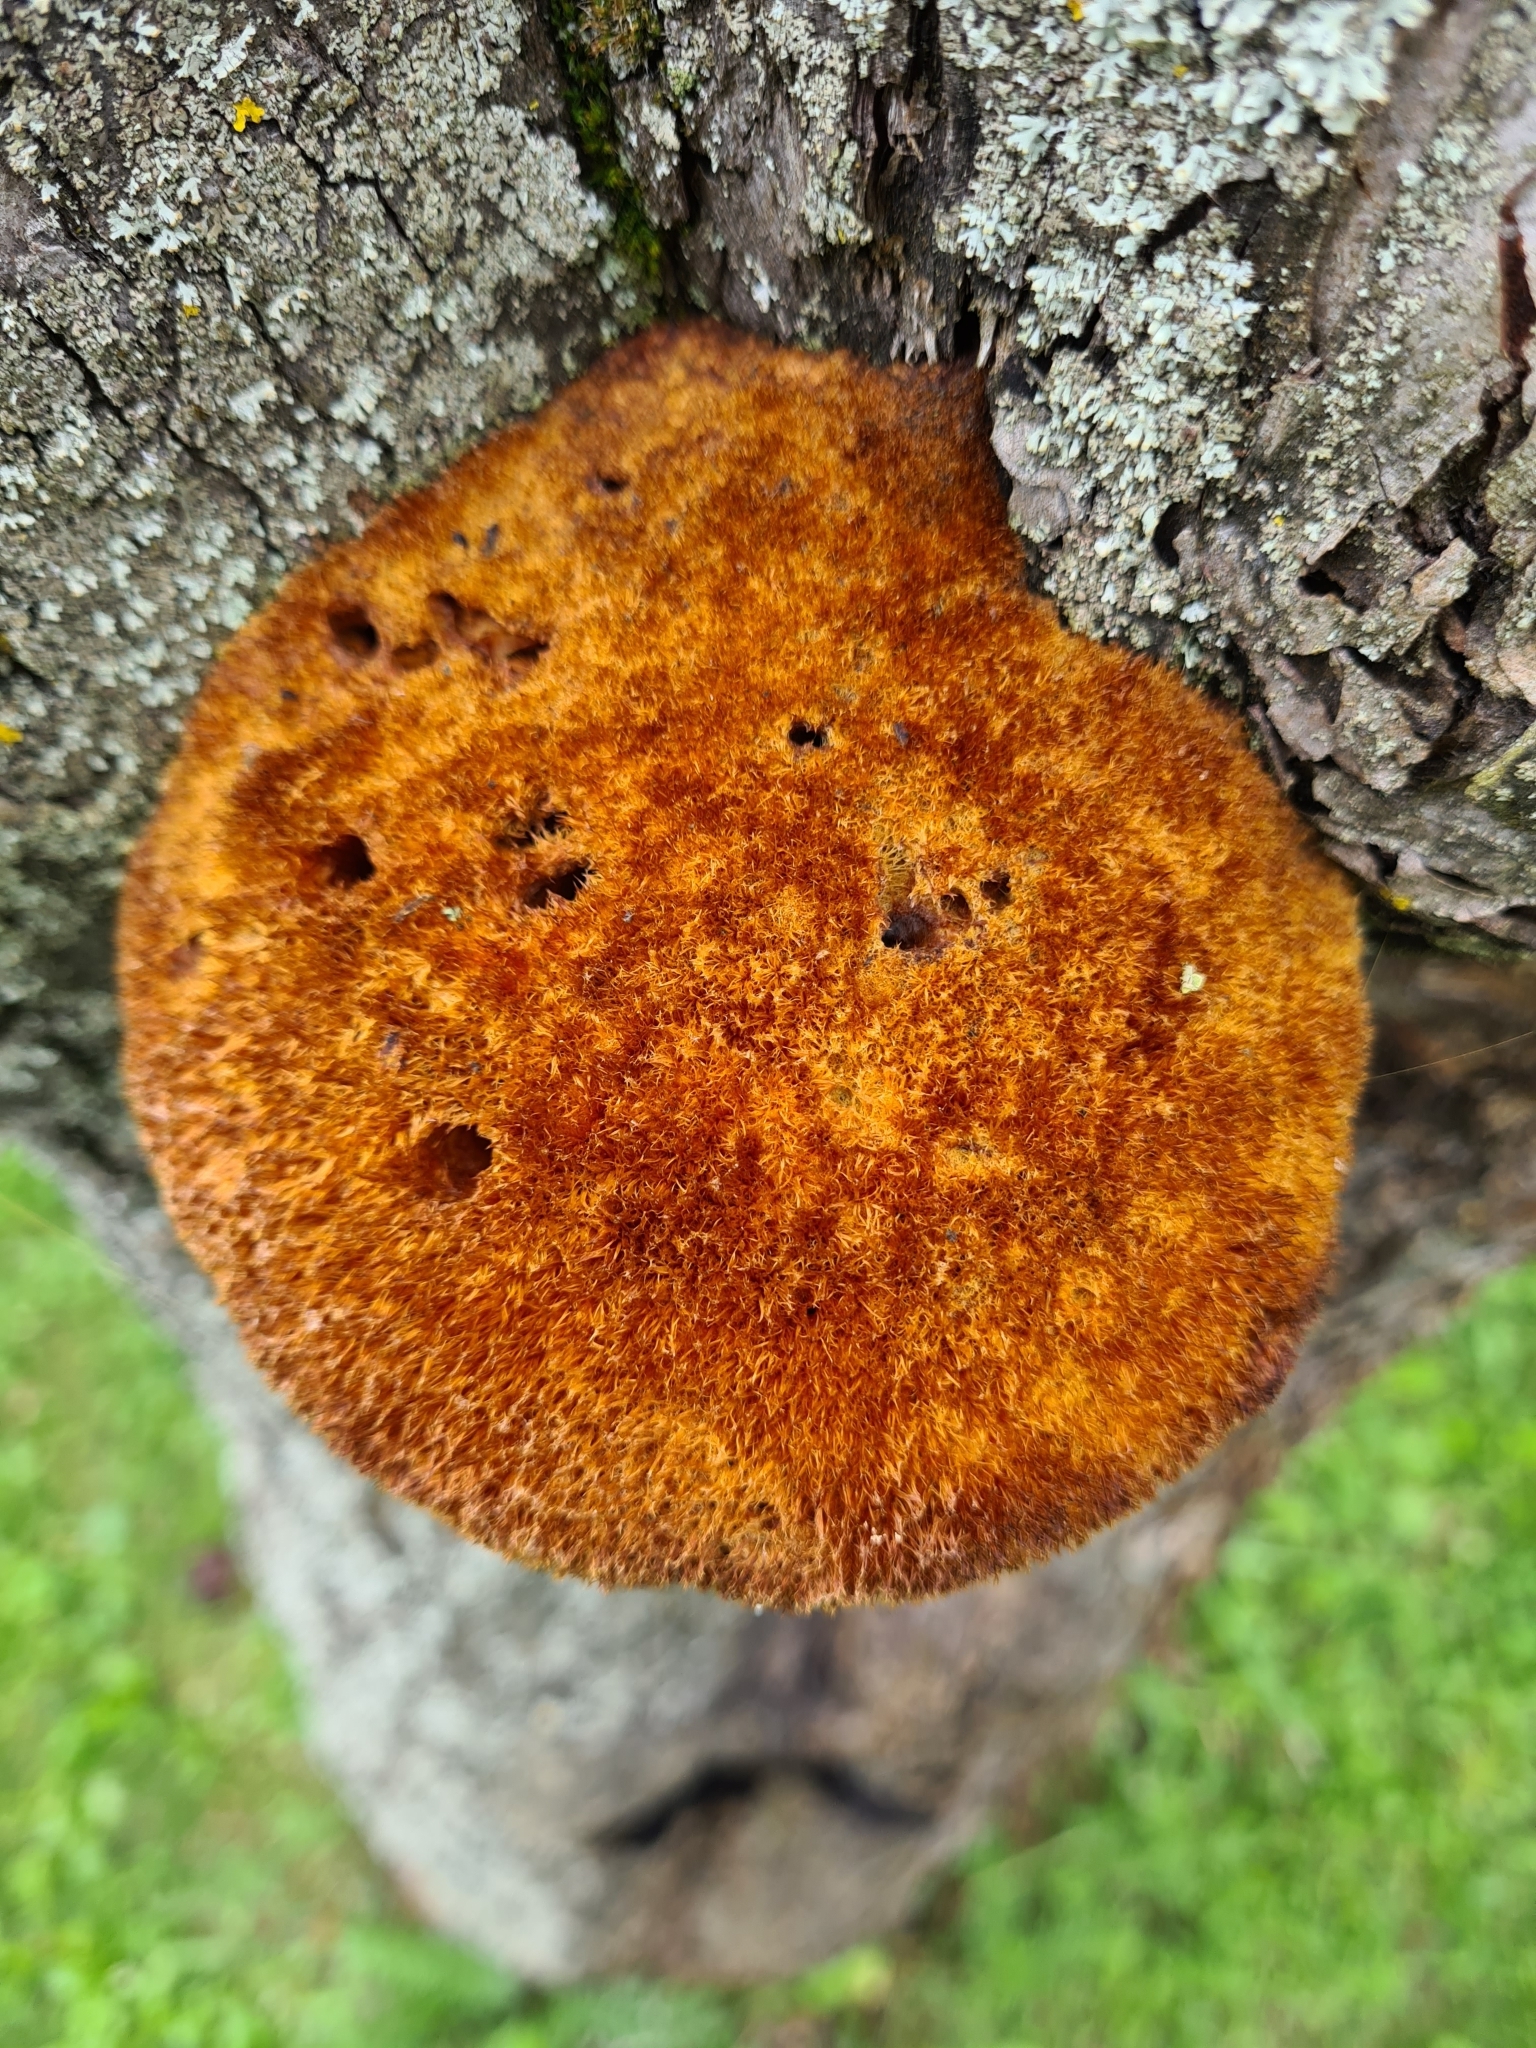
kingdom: Fungi
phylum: Basidiomycota
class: Agaricomycetes
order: Hymenochaetales
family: Hymenochaetaceae
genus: Inonotus
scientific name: Inonotus hispidus
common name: Shaggy bracket
